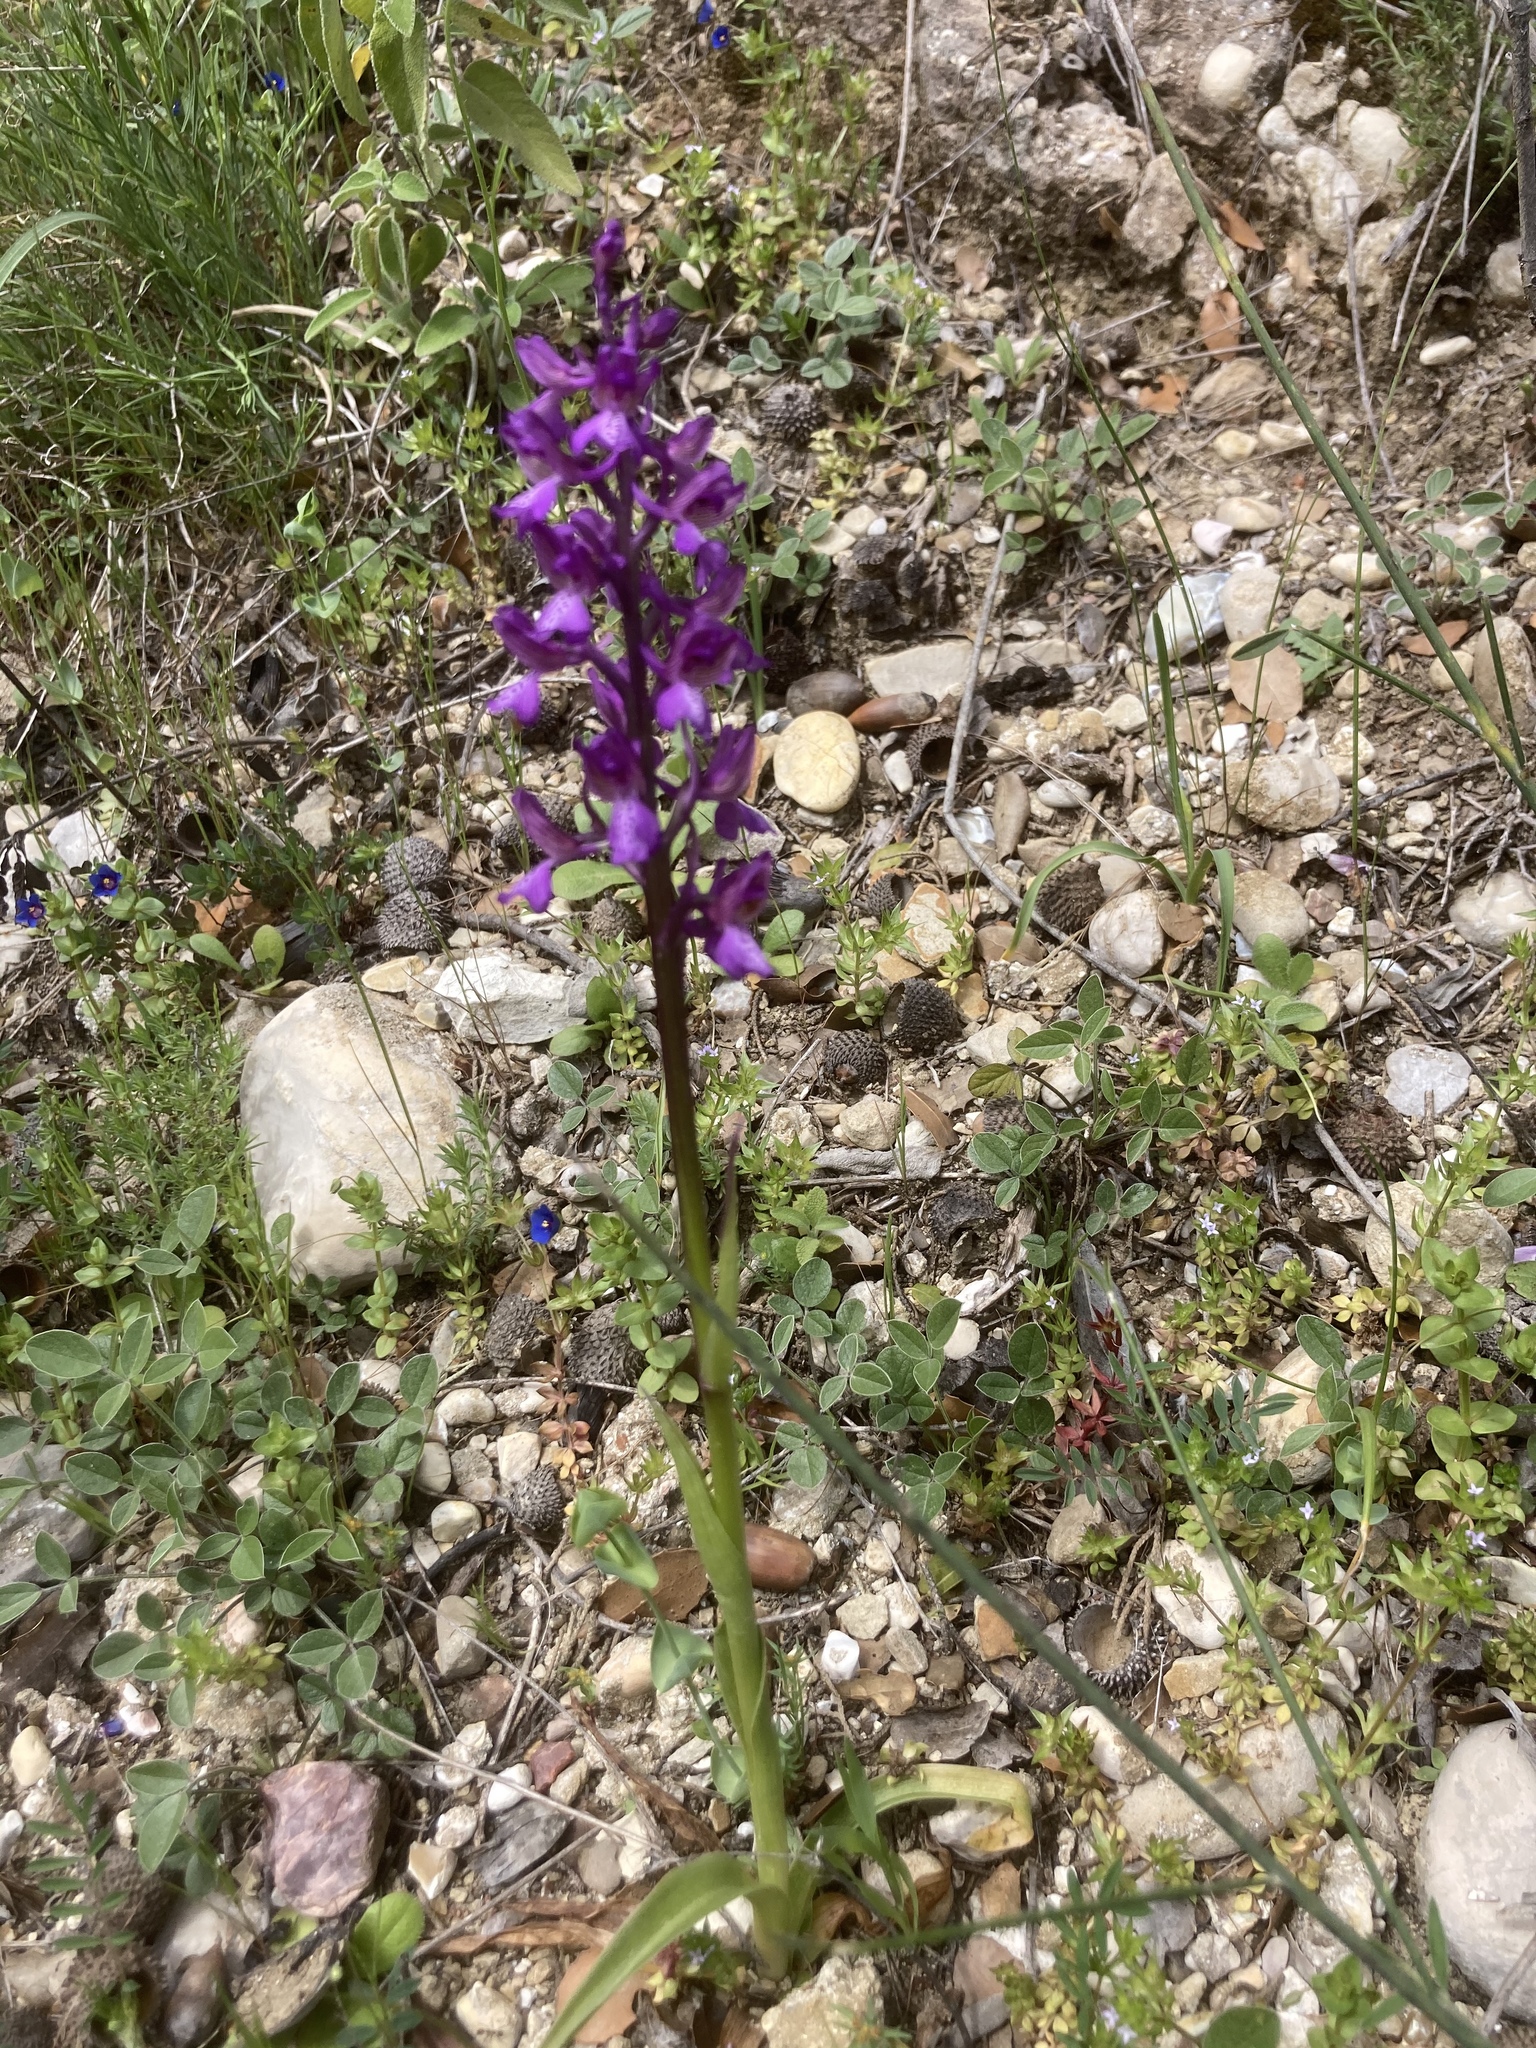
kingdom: Plantae
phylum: Tracheophyta
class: Magnoliopsida
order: Fabales
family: Fabaceae
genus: Bituminaria
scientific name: Bituminaria bituminosa
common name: Arabian pea
